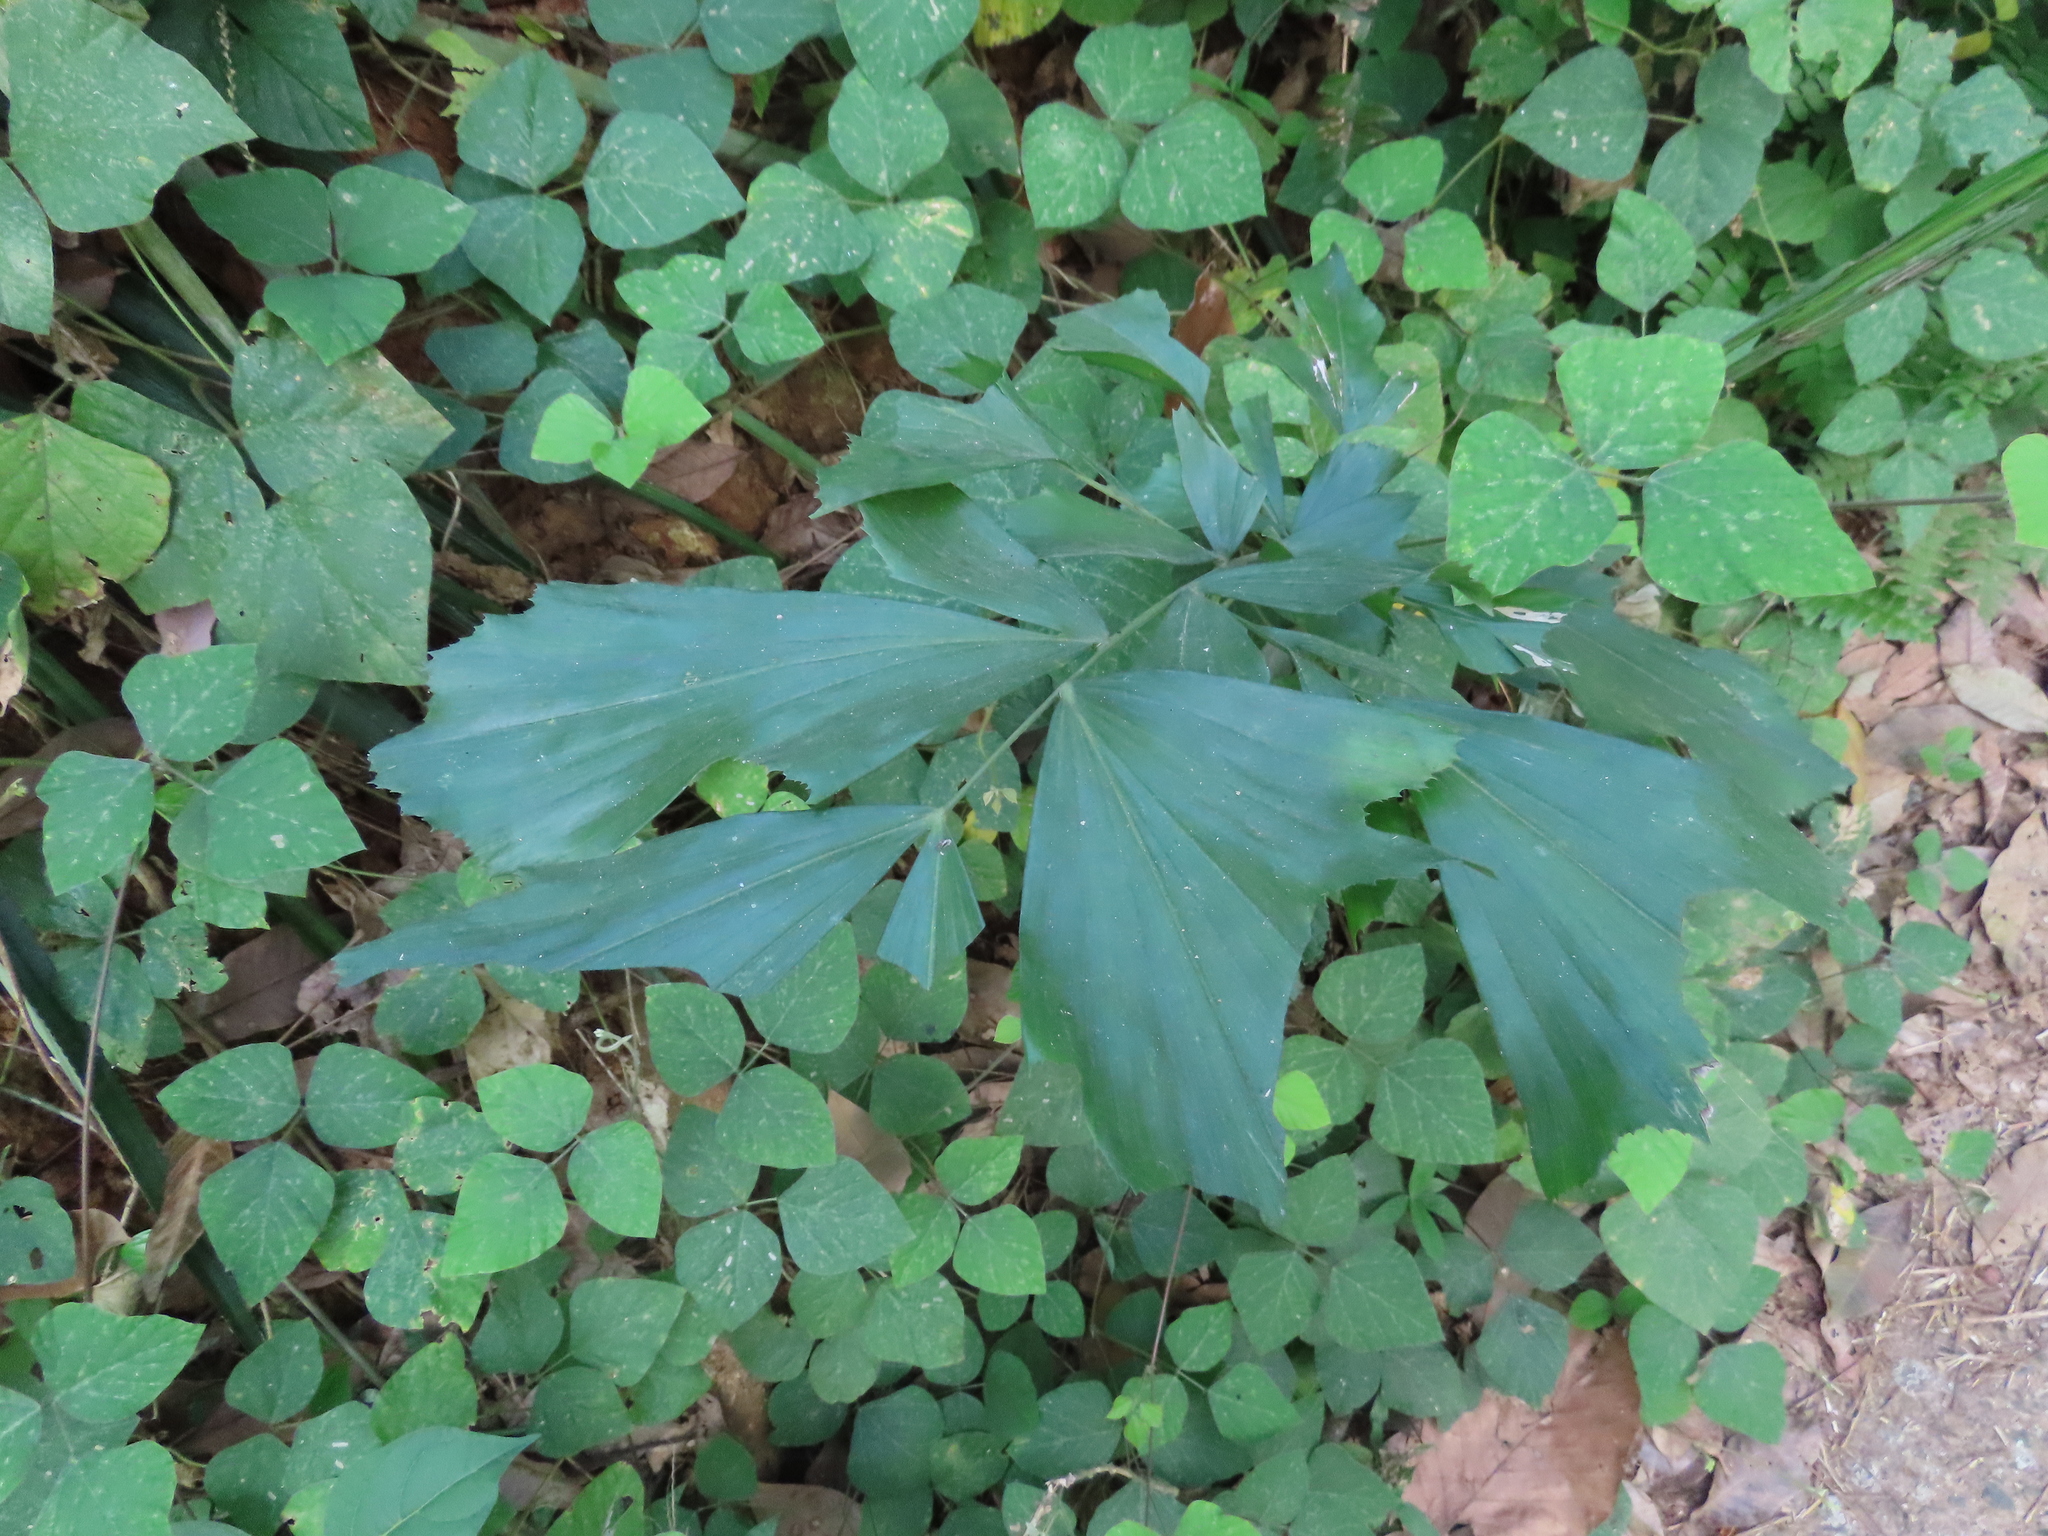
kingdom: Plantae
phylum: Tracheophyta
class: Liliopsida
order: Arecales
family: Arecaceae
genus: Caryota
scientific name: Caryota urens
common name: Jaggery palm
